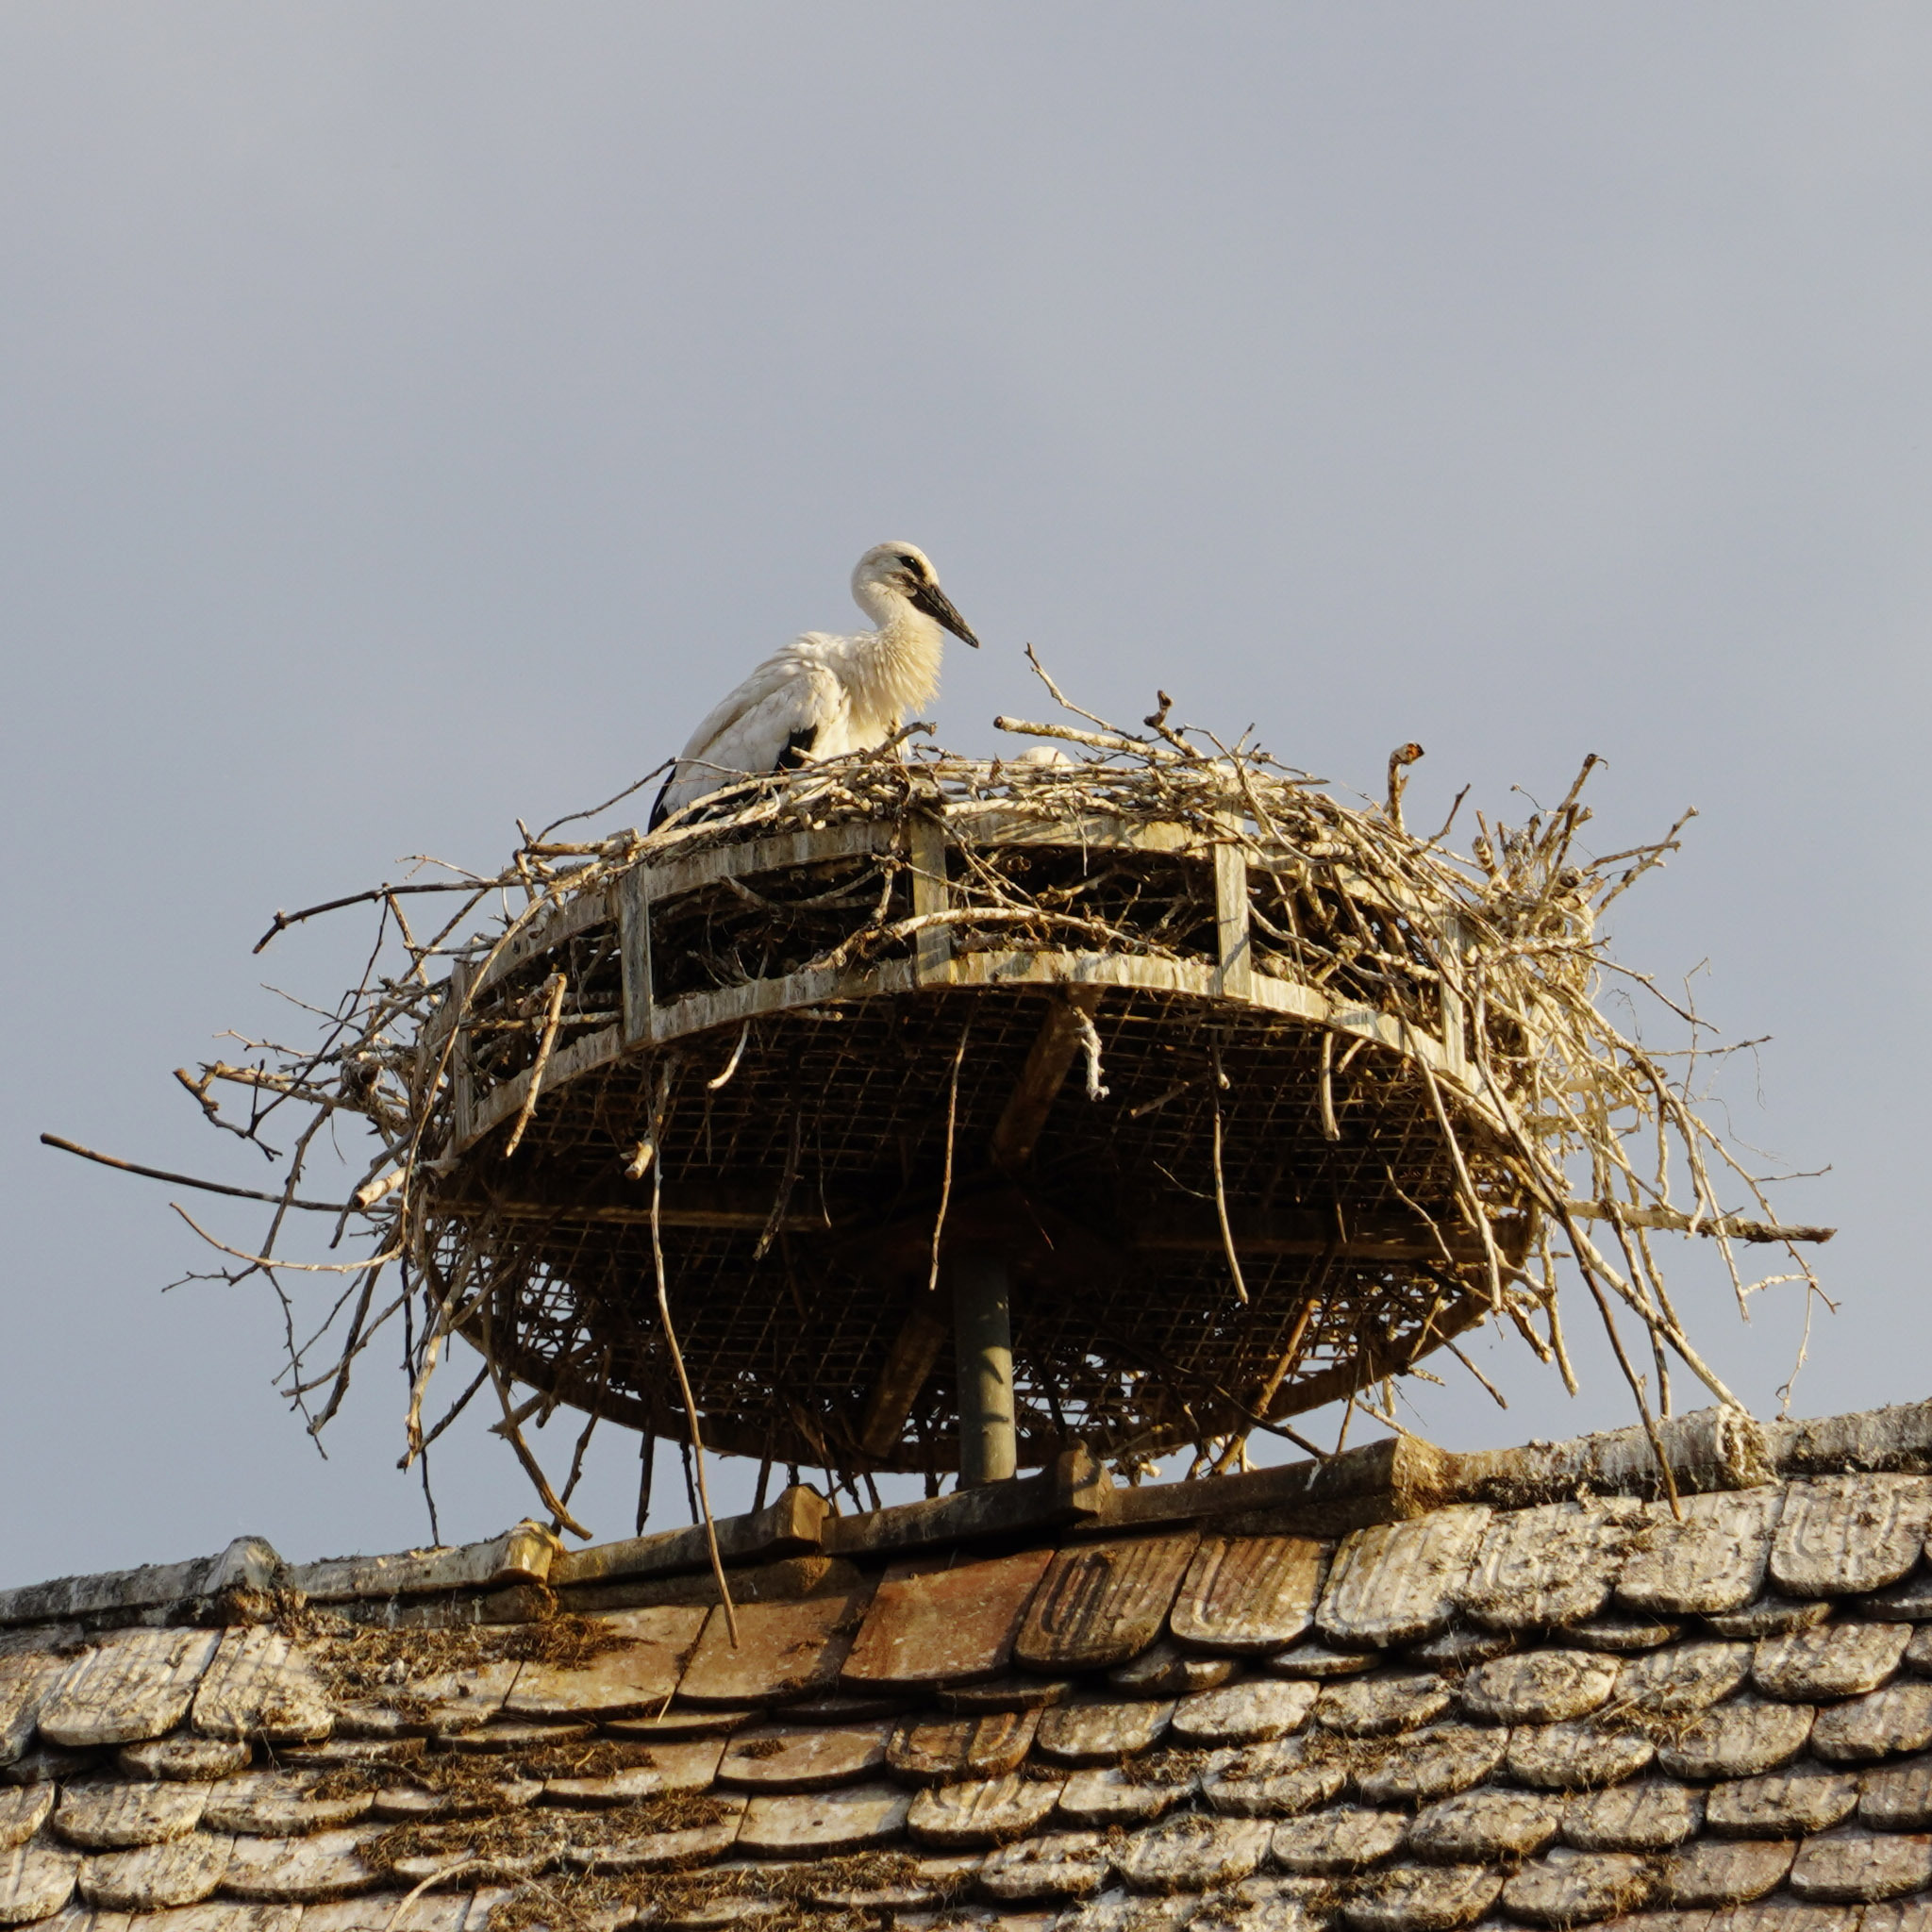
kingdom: Animalia
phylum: Chordata
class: Aves
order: Ciconiiformes
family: Ciconiidae
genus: Ciconia
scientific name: Ciconia ciconia
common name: White stork
